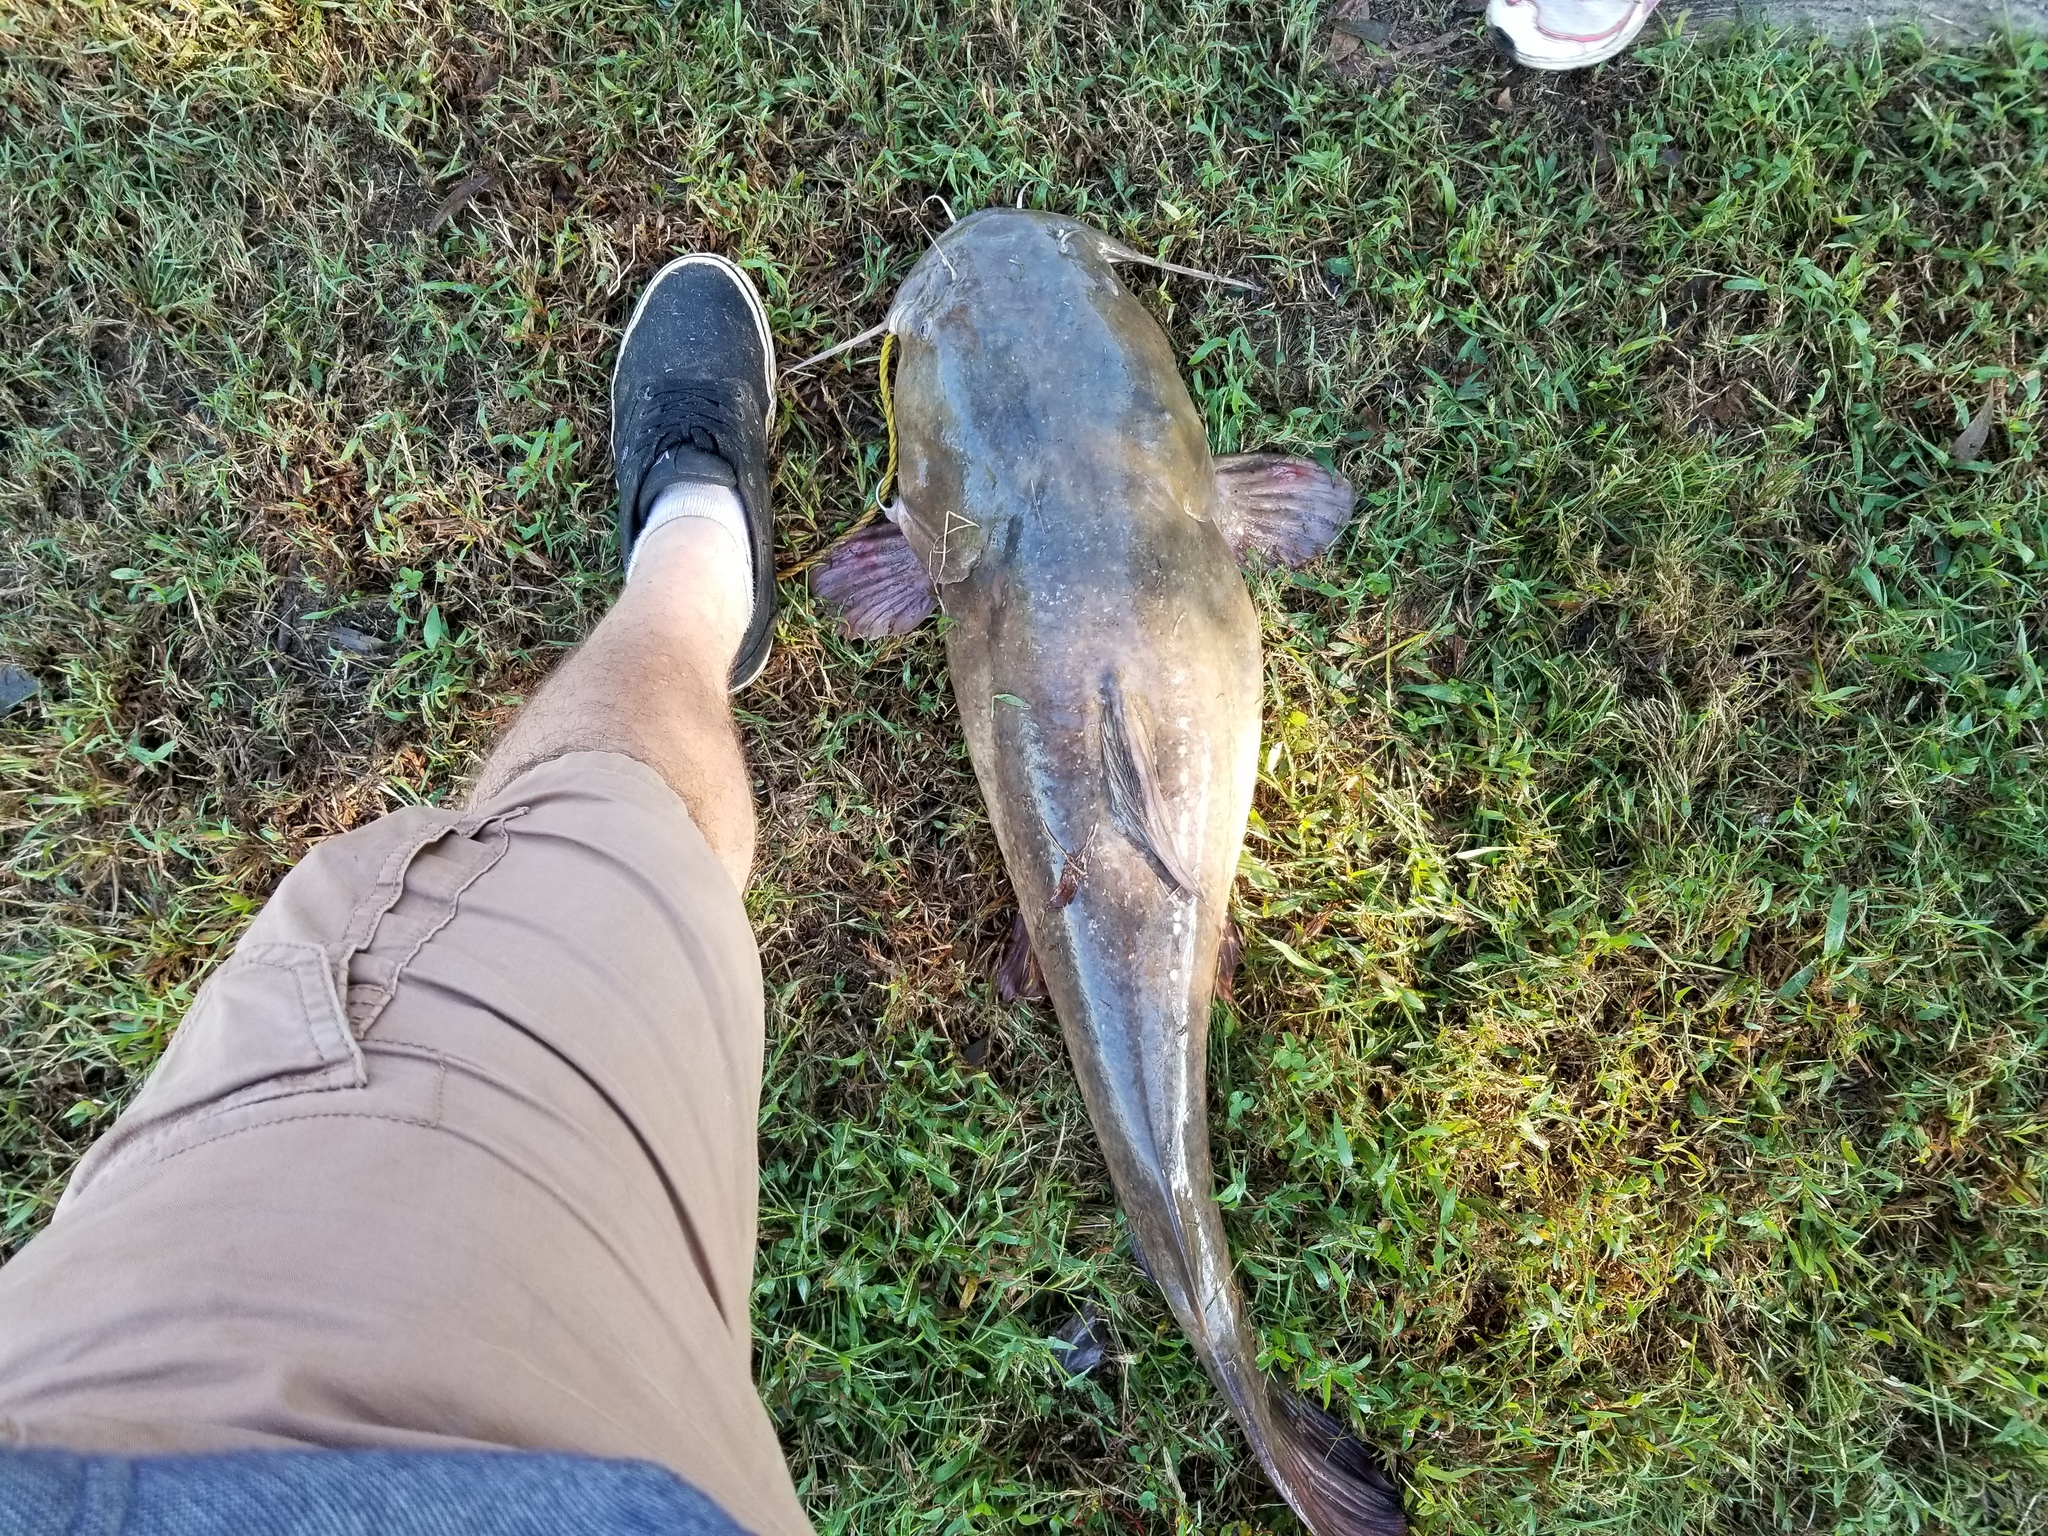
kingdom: Animalia
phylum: Chordata
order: Siluriformes
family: Ictaluridae
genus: Pylodictis
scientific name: Pylodictis olivaris
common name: Flathead catfish
